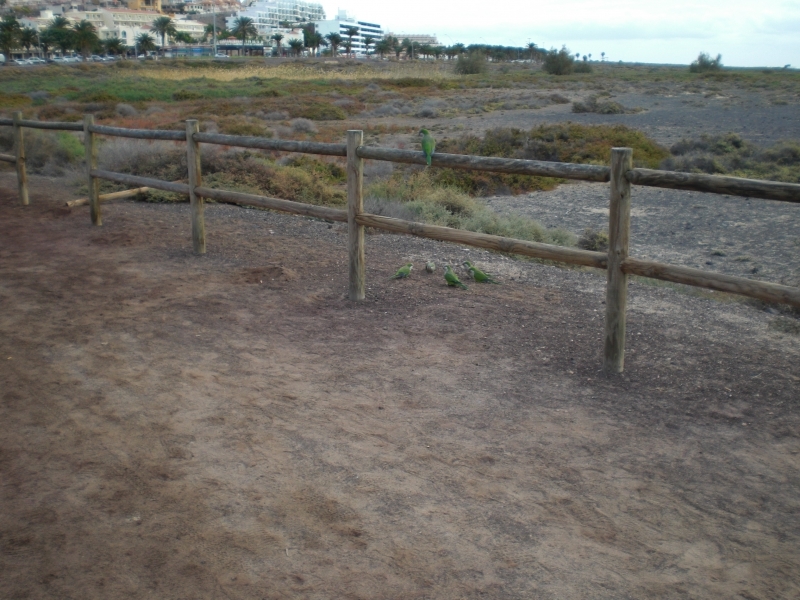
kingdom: Animalia
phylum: Chordata
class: Aves
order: Psittaciformes
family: Psittacidae
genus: Myiopsitta
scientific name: Myiopsitta monachus
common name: Monk parakeet
